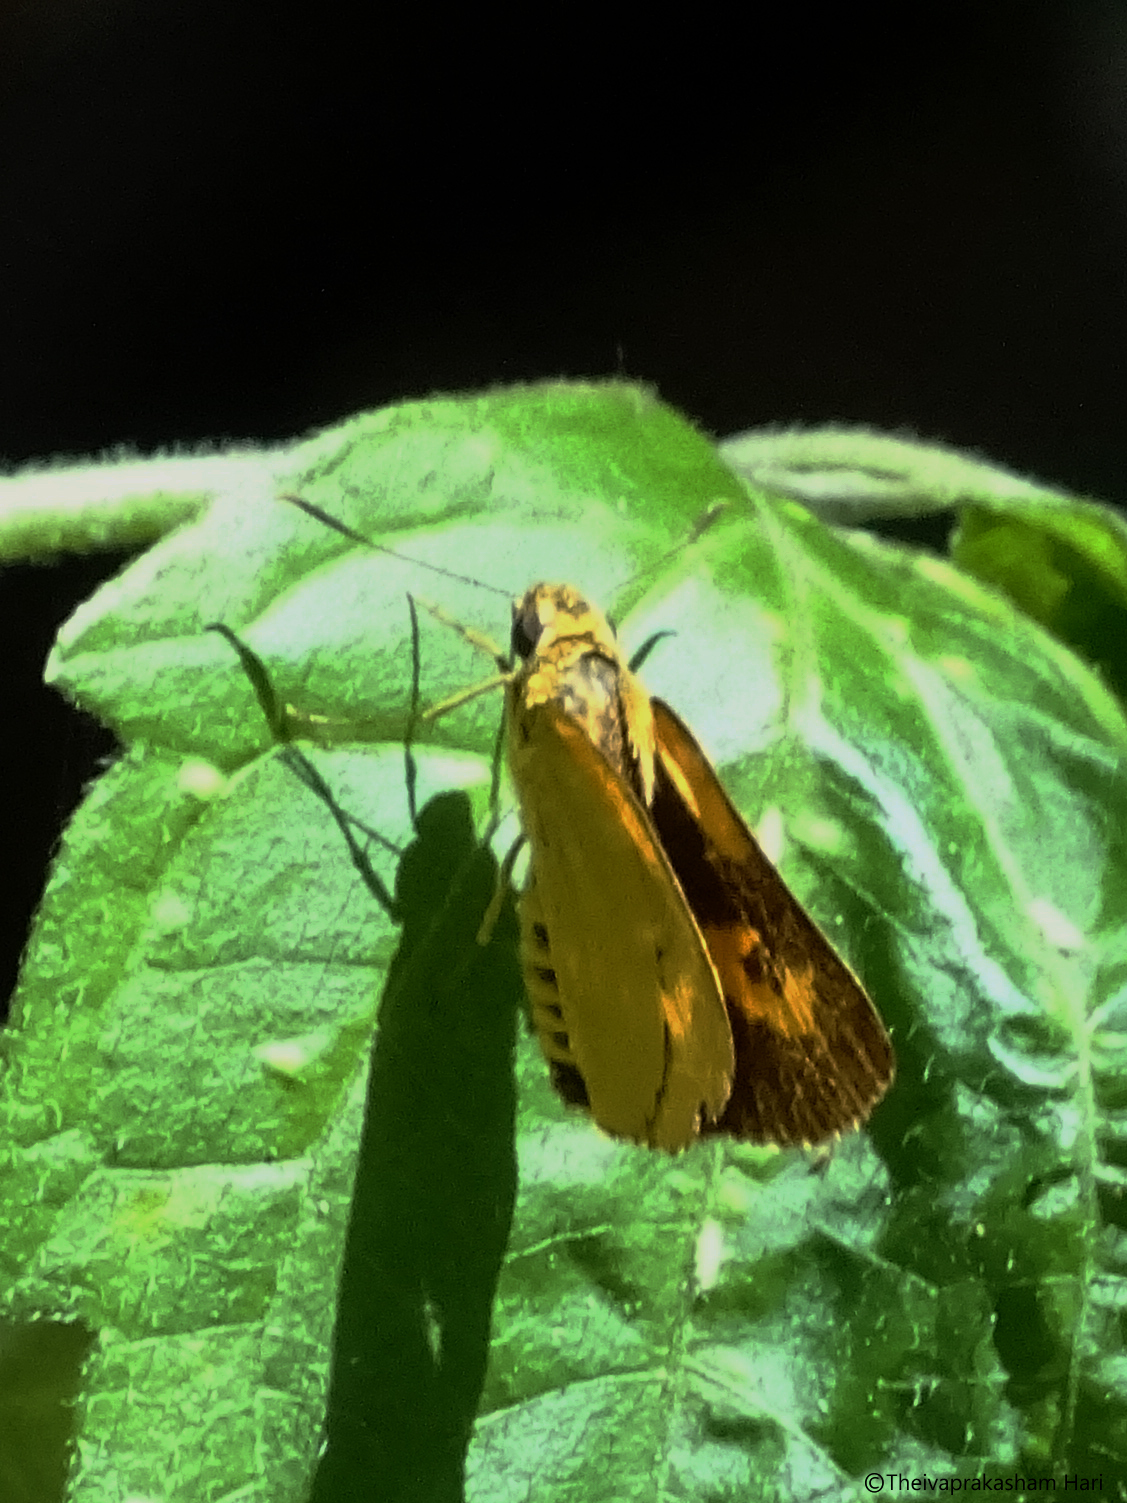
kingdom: Animalia
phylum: Arthropoda
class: Insecta
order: Lepidoptera
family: Hesperiidae
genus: Cupitha
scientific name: Cupitha purreea
